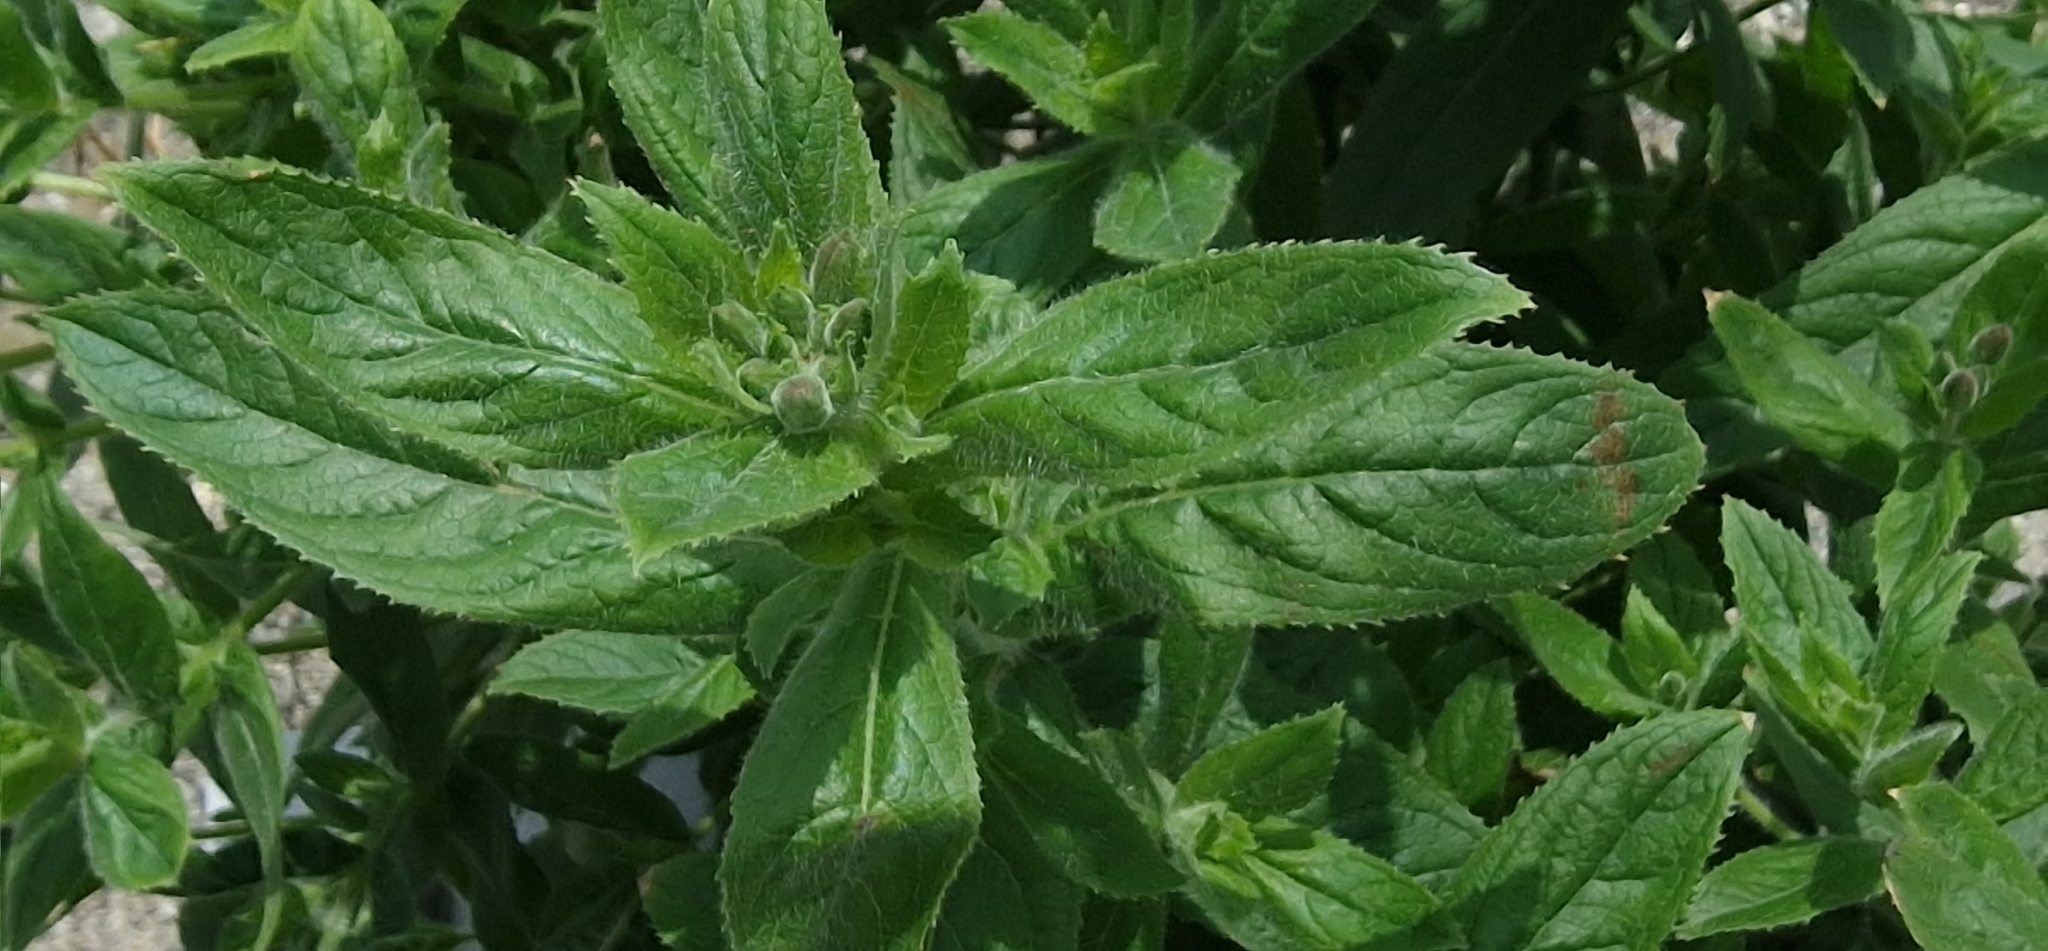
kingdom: Plantae
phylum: Tracheophyta
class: Magnoliopsida
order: Myrtales
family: Onagraceae
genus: Epilobium
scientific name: Epilobium hirsutum
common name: Great willowherb
